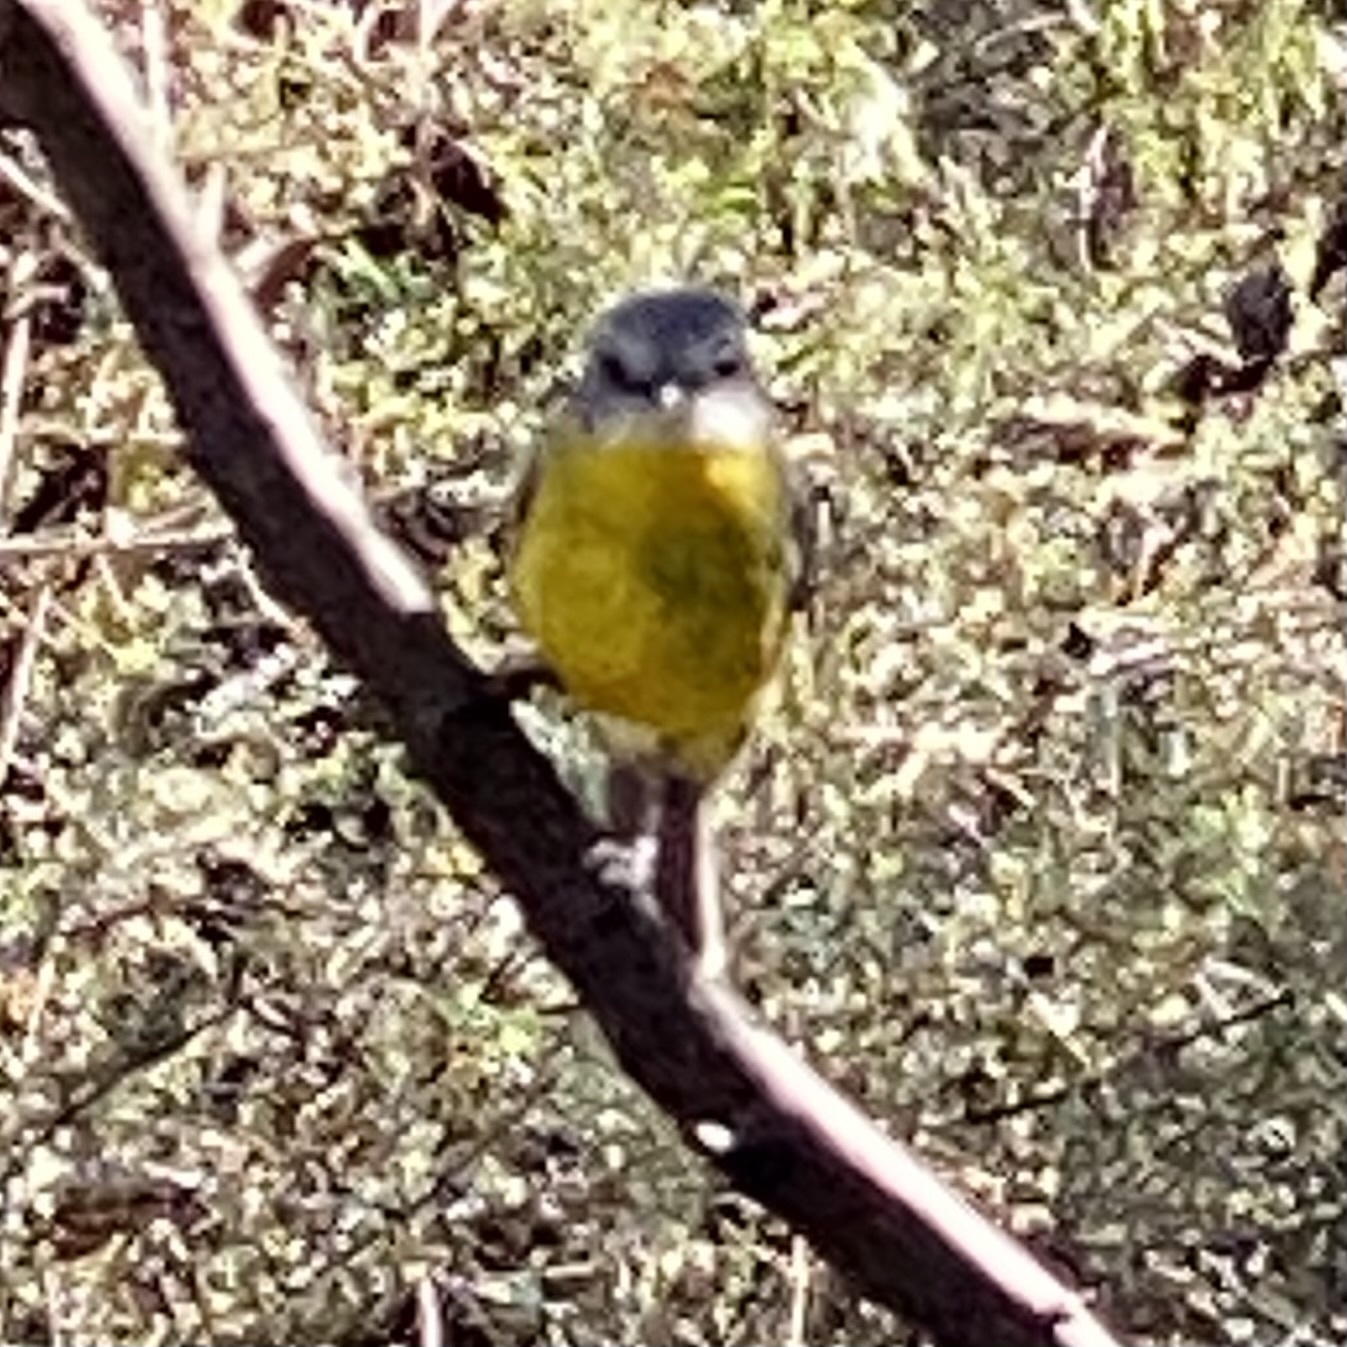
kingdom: Animalia
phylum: Chordata
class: Aves
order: Passeriformes
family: Petroicidae
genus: Eopsaltria
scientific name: Eopsaltria australis
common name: Eastern yellow robin
